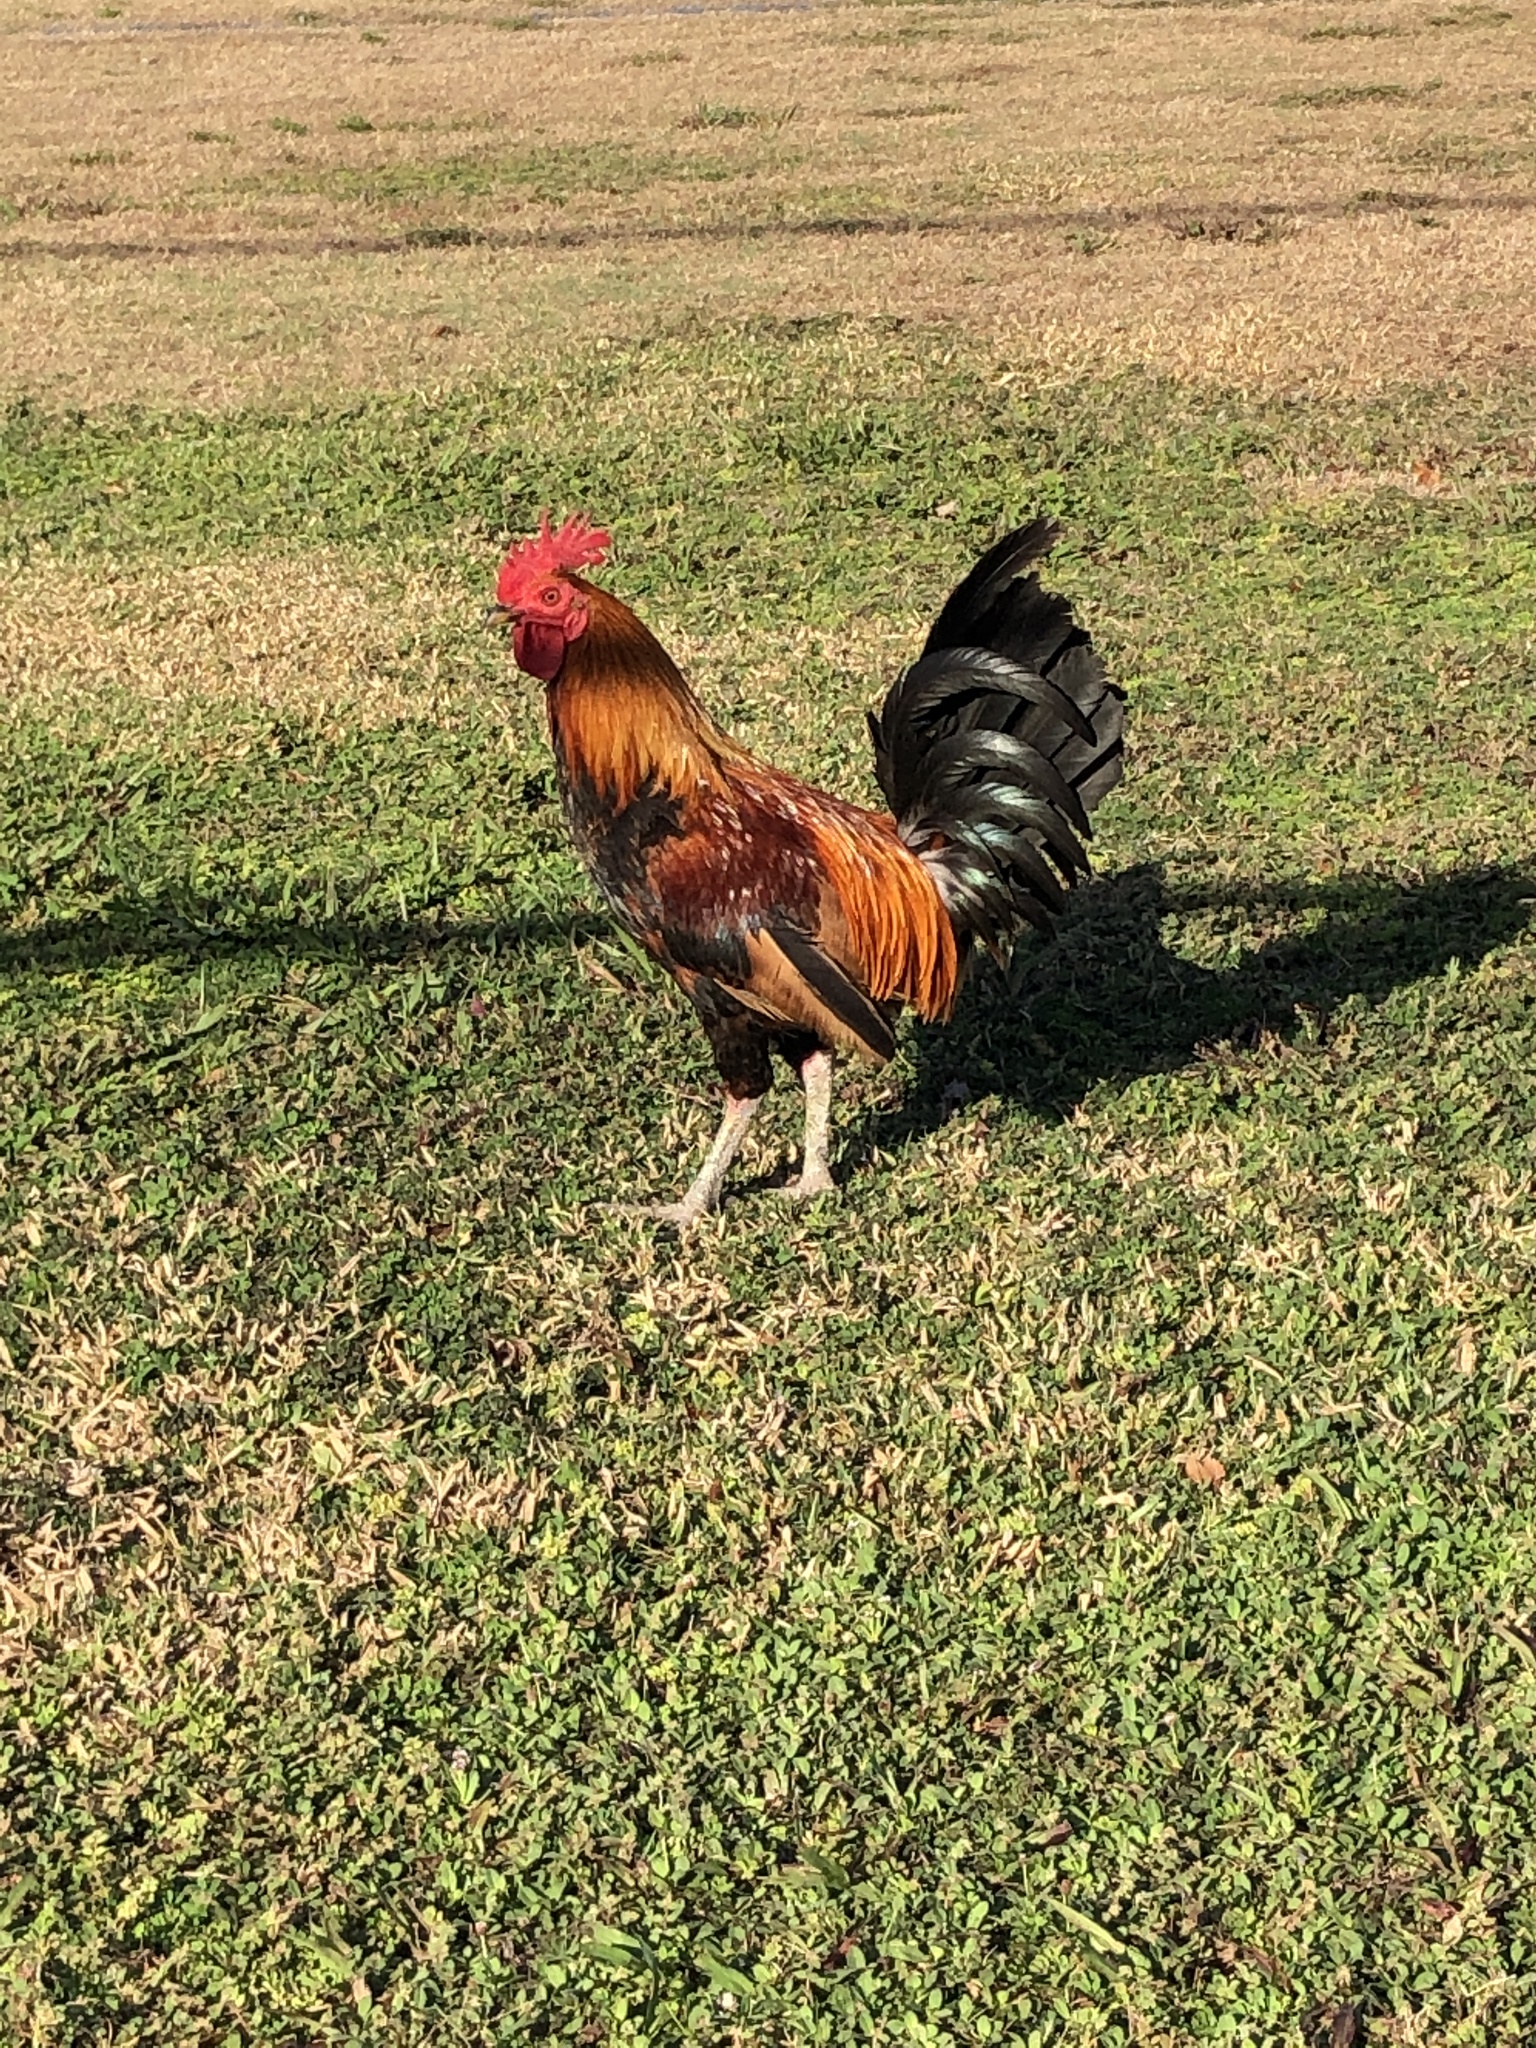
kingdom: Animalia
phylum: Chordata
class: Aves
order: Galliformes
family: Phasianidae
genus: Gallus
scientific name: Gallus gallus
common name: Red junglefowl
